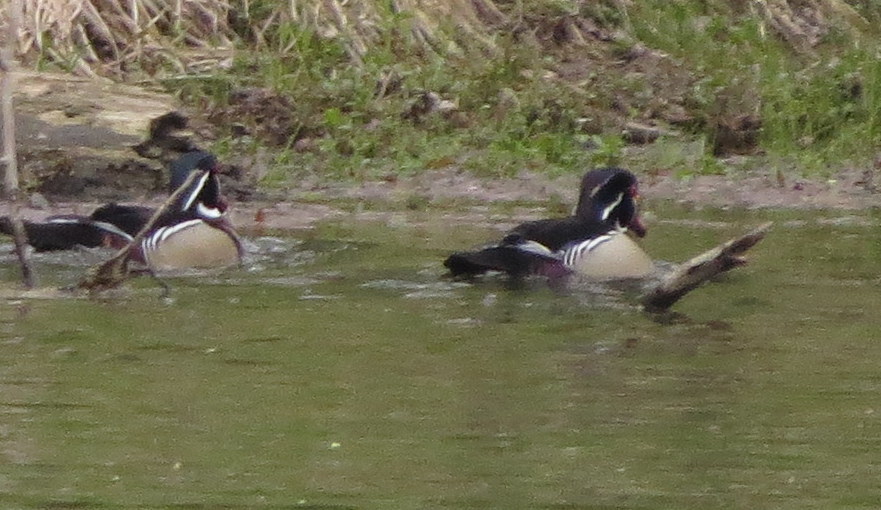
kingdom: Animalia
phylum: Chordata
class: Aves
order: Anseriformes
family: Anatidae
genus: Aix
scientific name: Aix sponsa
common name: Wood duck
